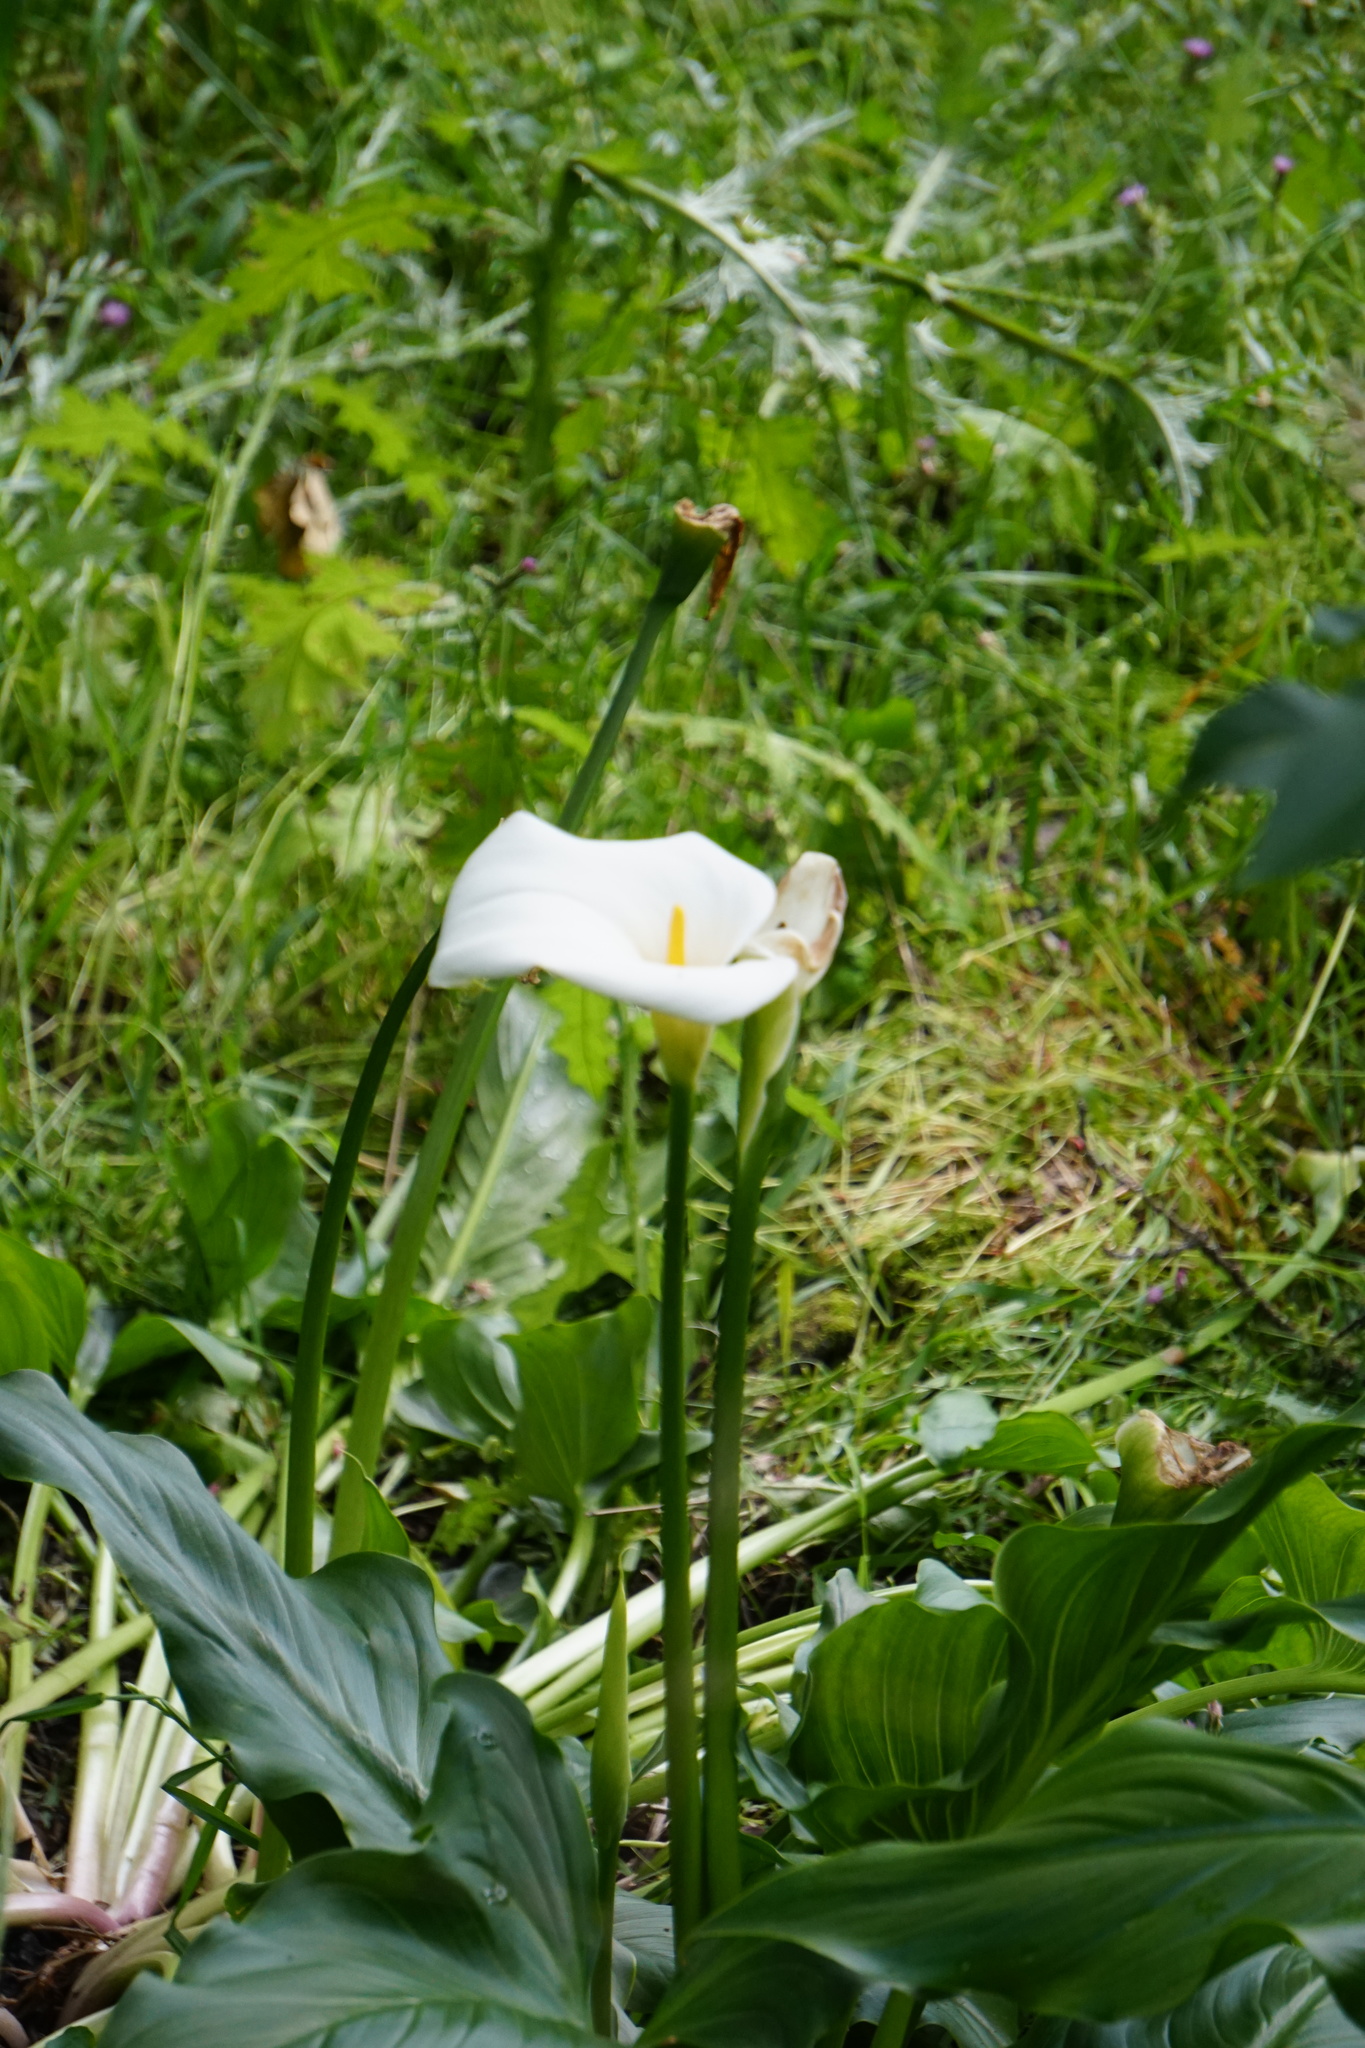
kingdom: Plantae
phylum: Tracheophyta
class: Liliopsida
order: Alismatales
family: Araceae
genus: Zantedeschia
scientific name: Zantedeschia aethiopica
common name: Altar-lily
